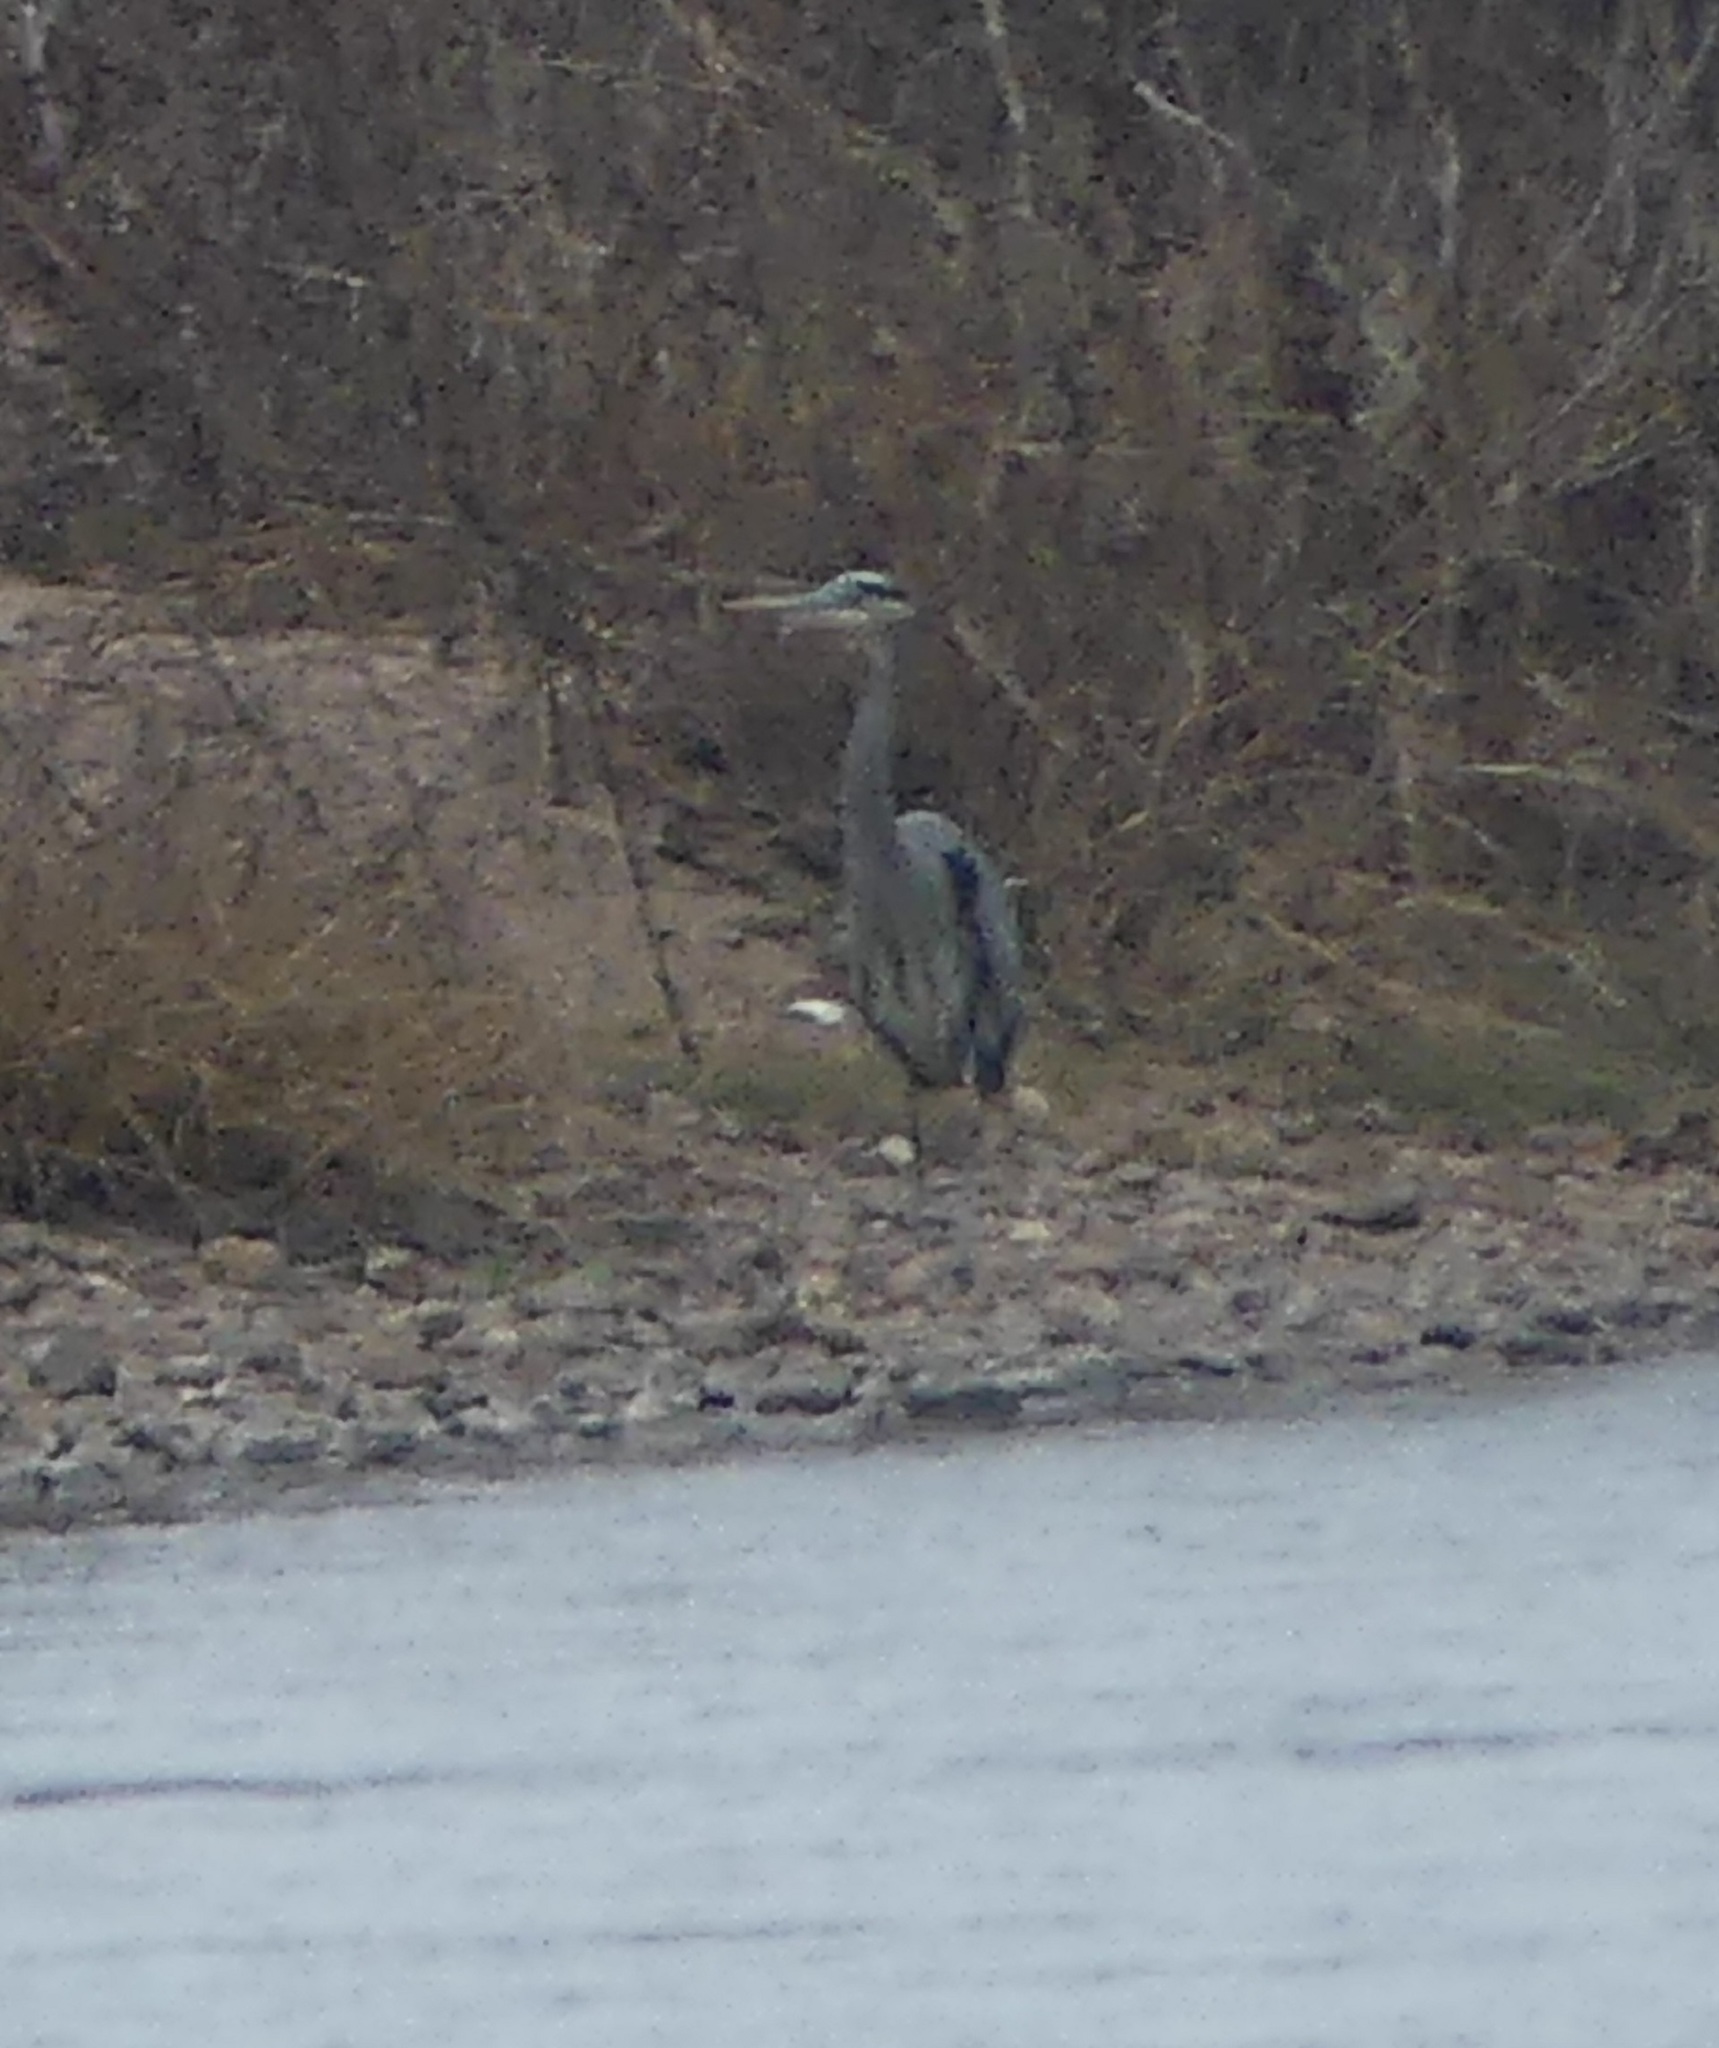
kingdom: Animalia
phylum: Chordata
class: Aves
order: Pelecaniformes
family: Ardeidae
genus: Ardea
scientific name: Ardea herodias
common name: Great blue heron
